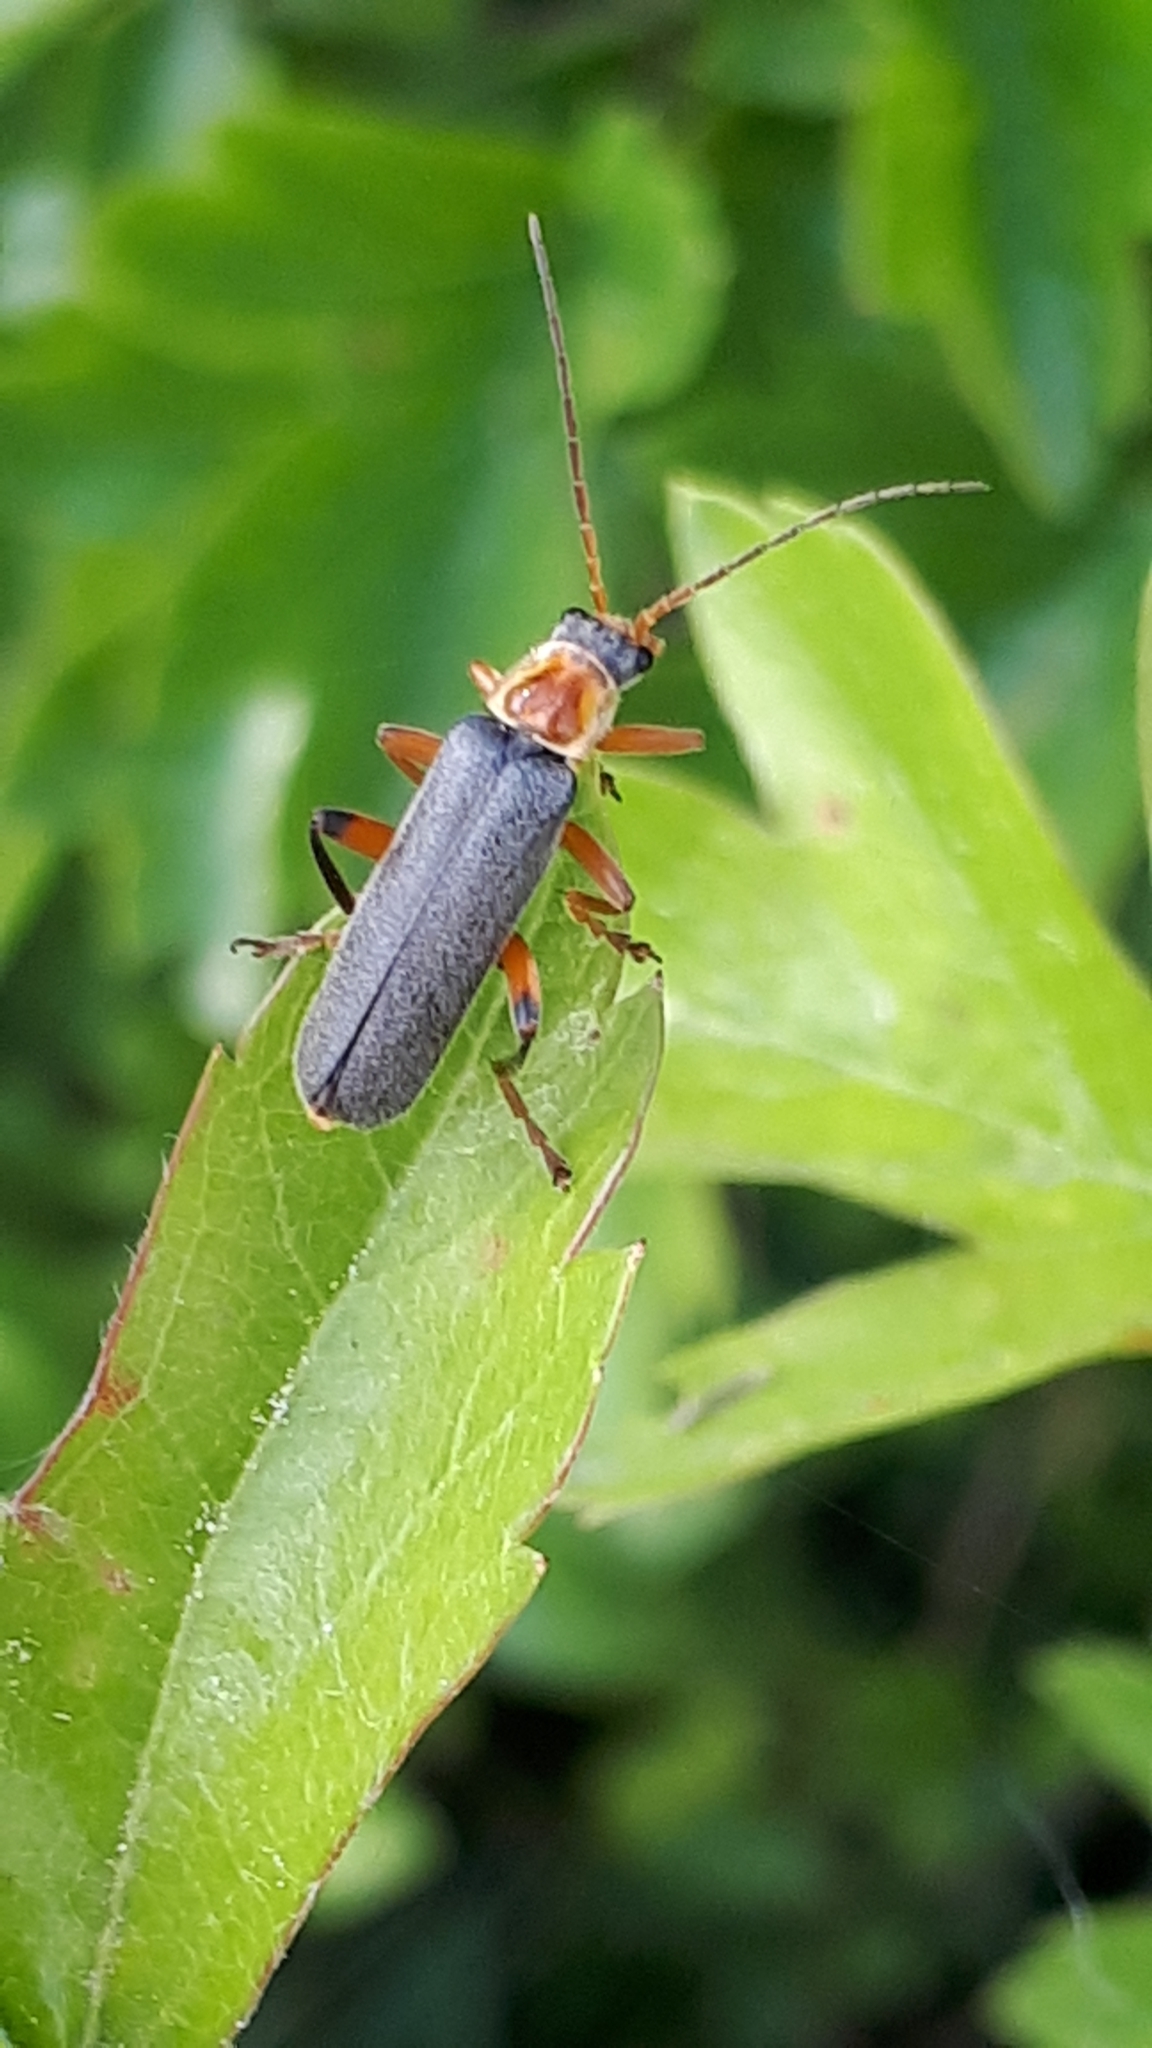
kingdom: Animalia
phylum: Arthropoda
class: Insecta
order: Coleoptera
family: Cantharidae
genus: Cantharis
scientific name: Cantharis nigricans
